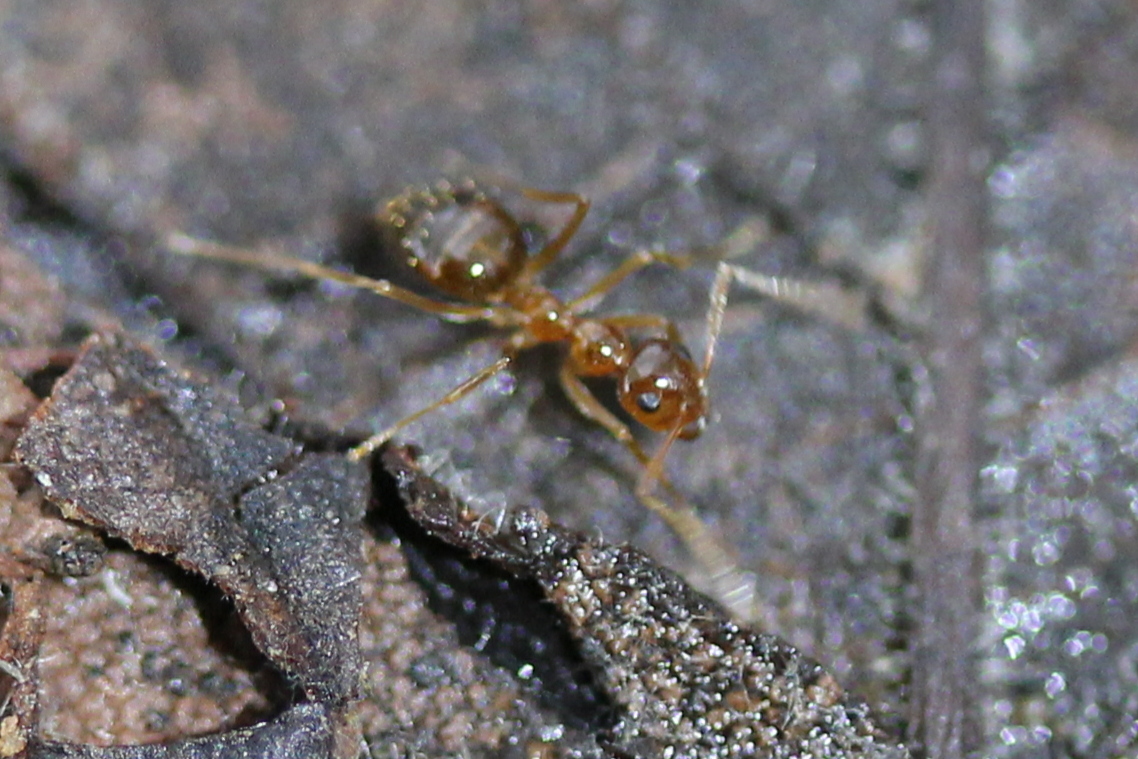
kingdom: Animalia
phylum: Arthropoda
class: Insecta
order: Hymenoptera
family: Formicidae
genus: Prenolepis
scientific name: Prenolepis imparis
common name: Small honey ant
